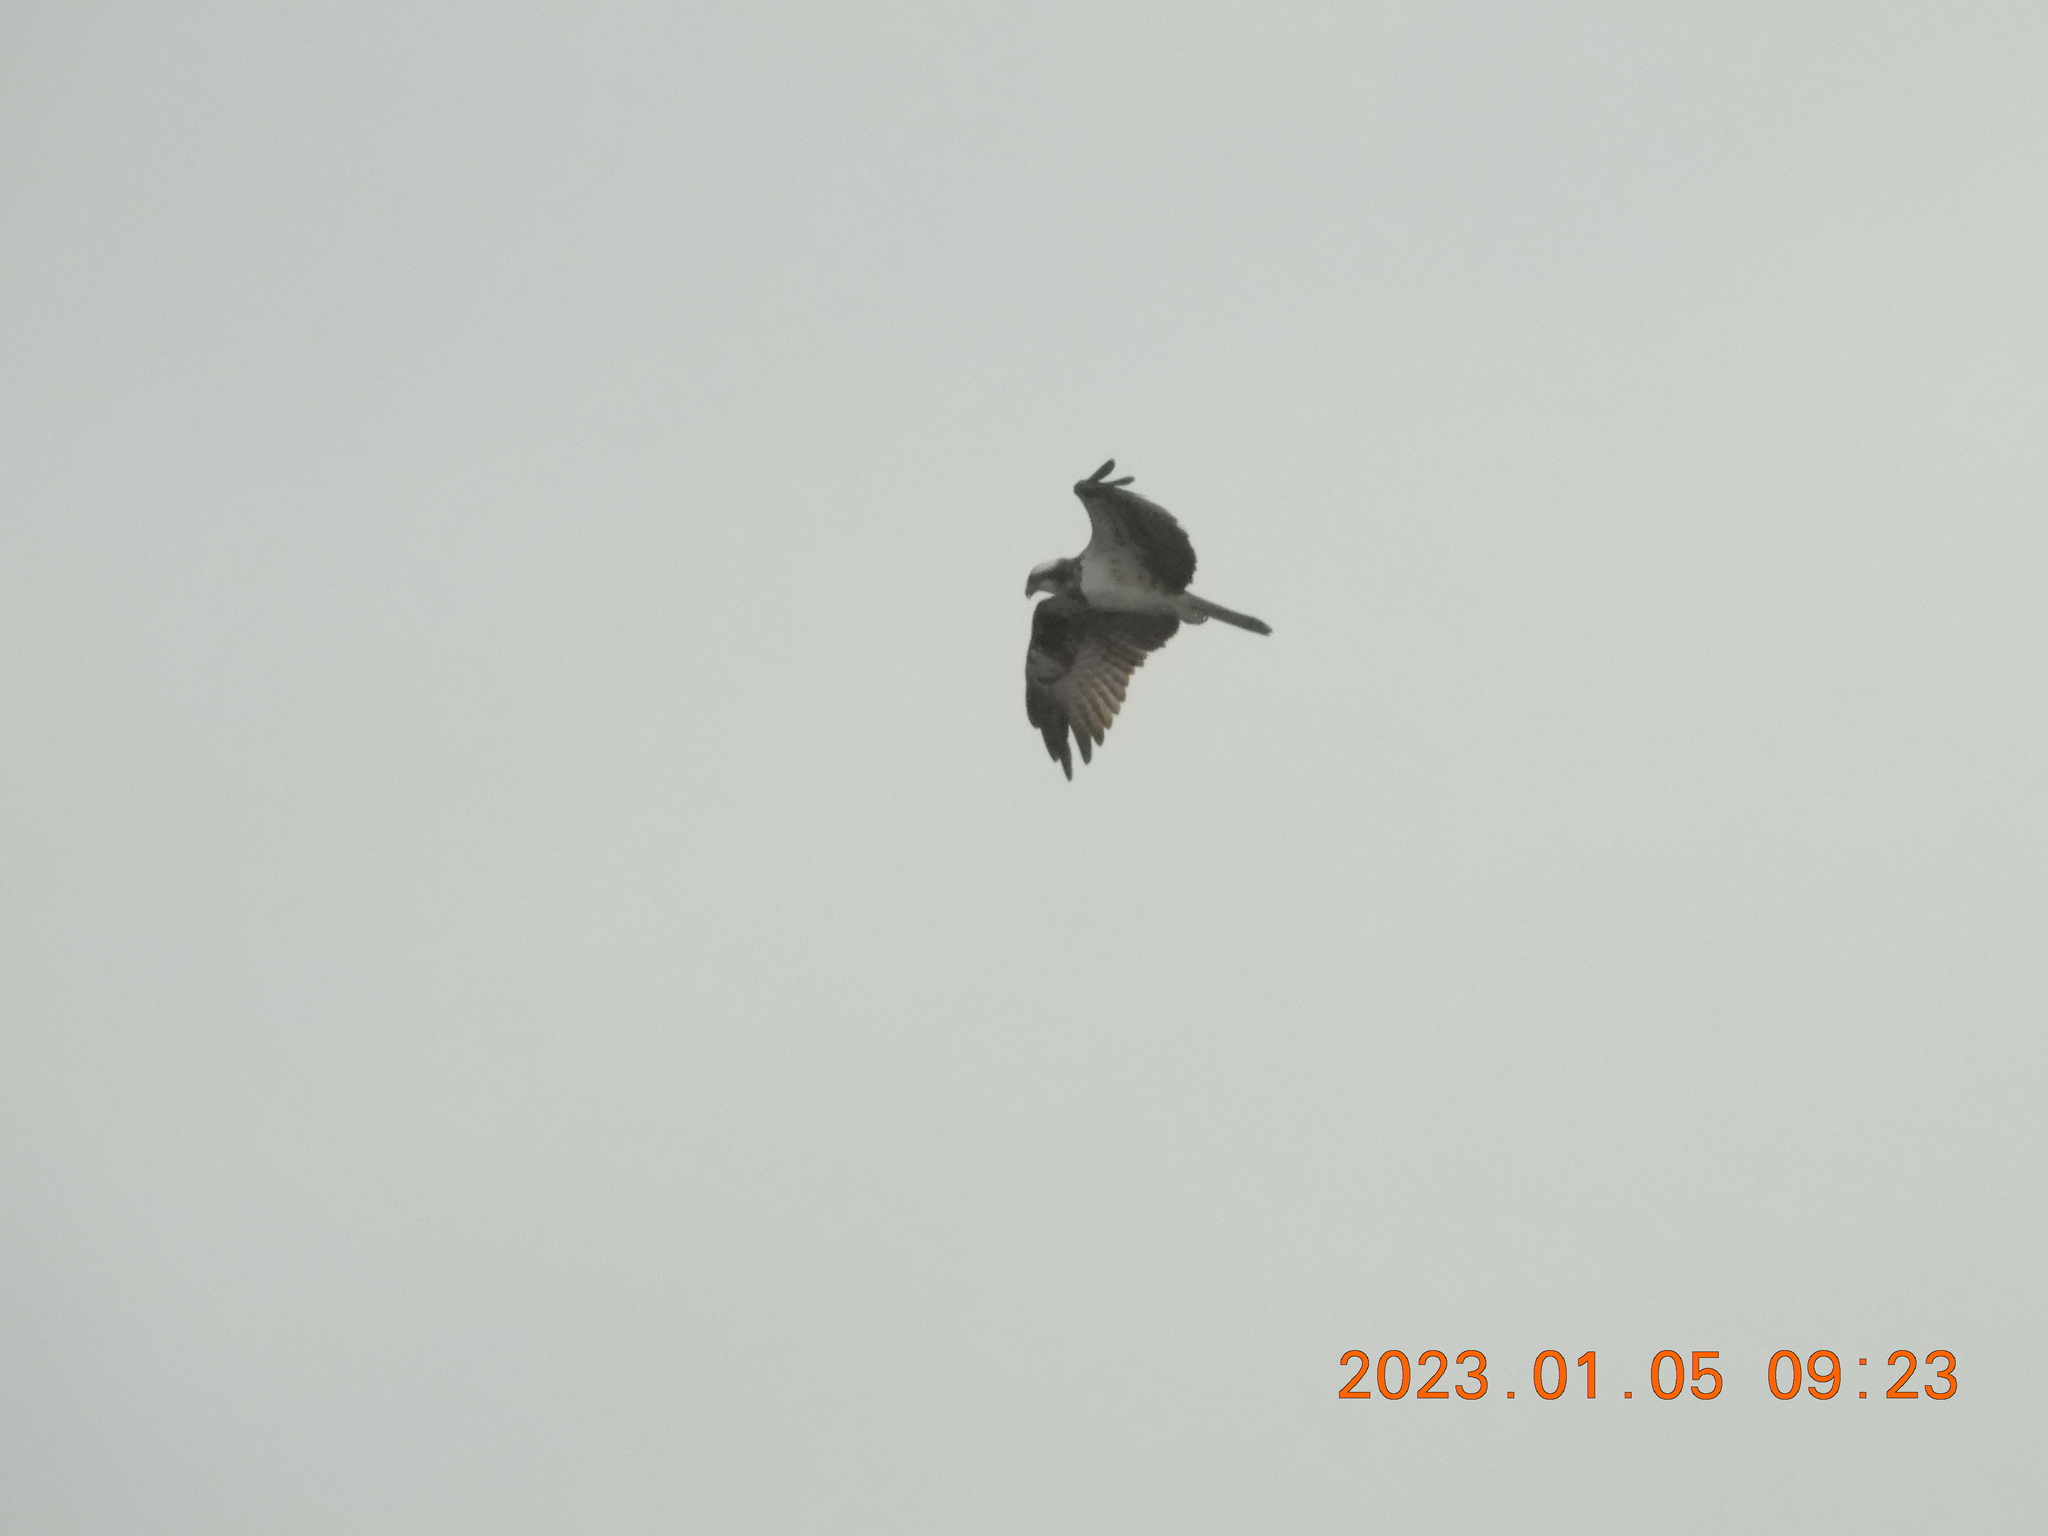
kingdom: Animalia
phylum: Chordata
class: Aves
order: Accipitriformes
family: Pandionidae
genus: Pandion
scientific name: Pandion haliaetus
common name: Osprey
